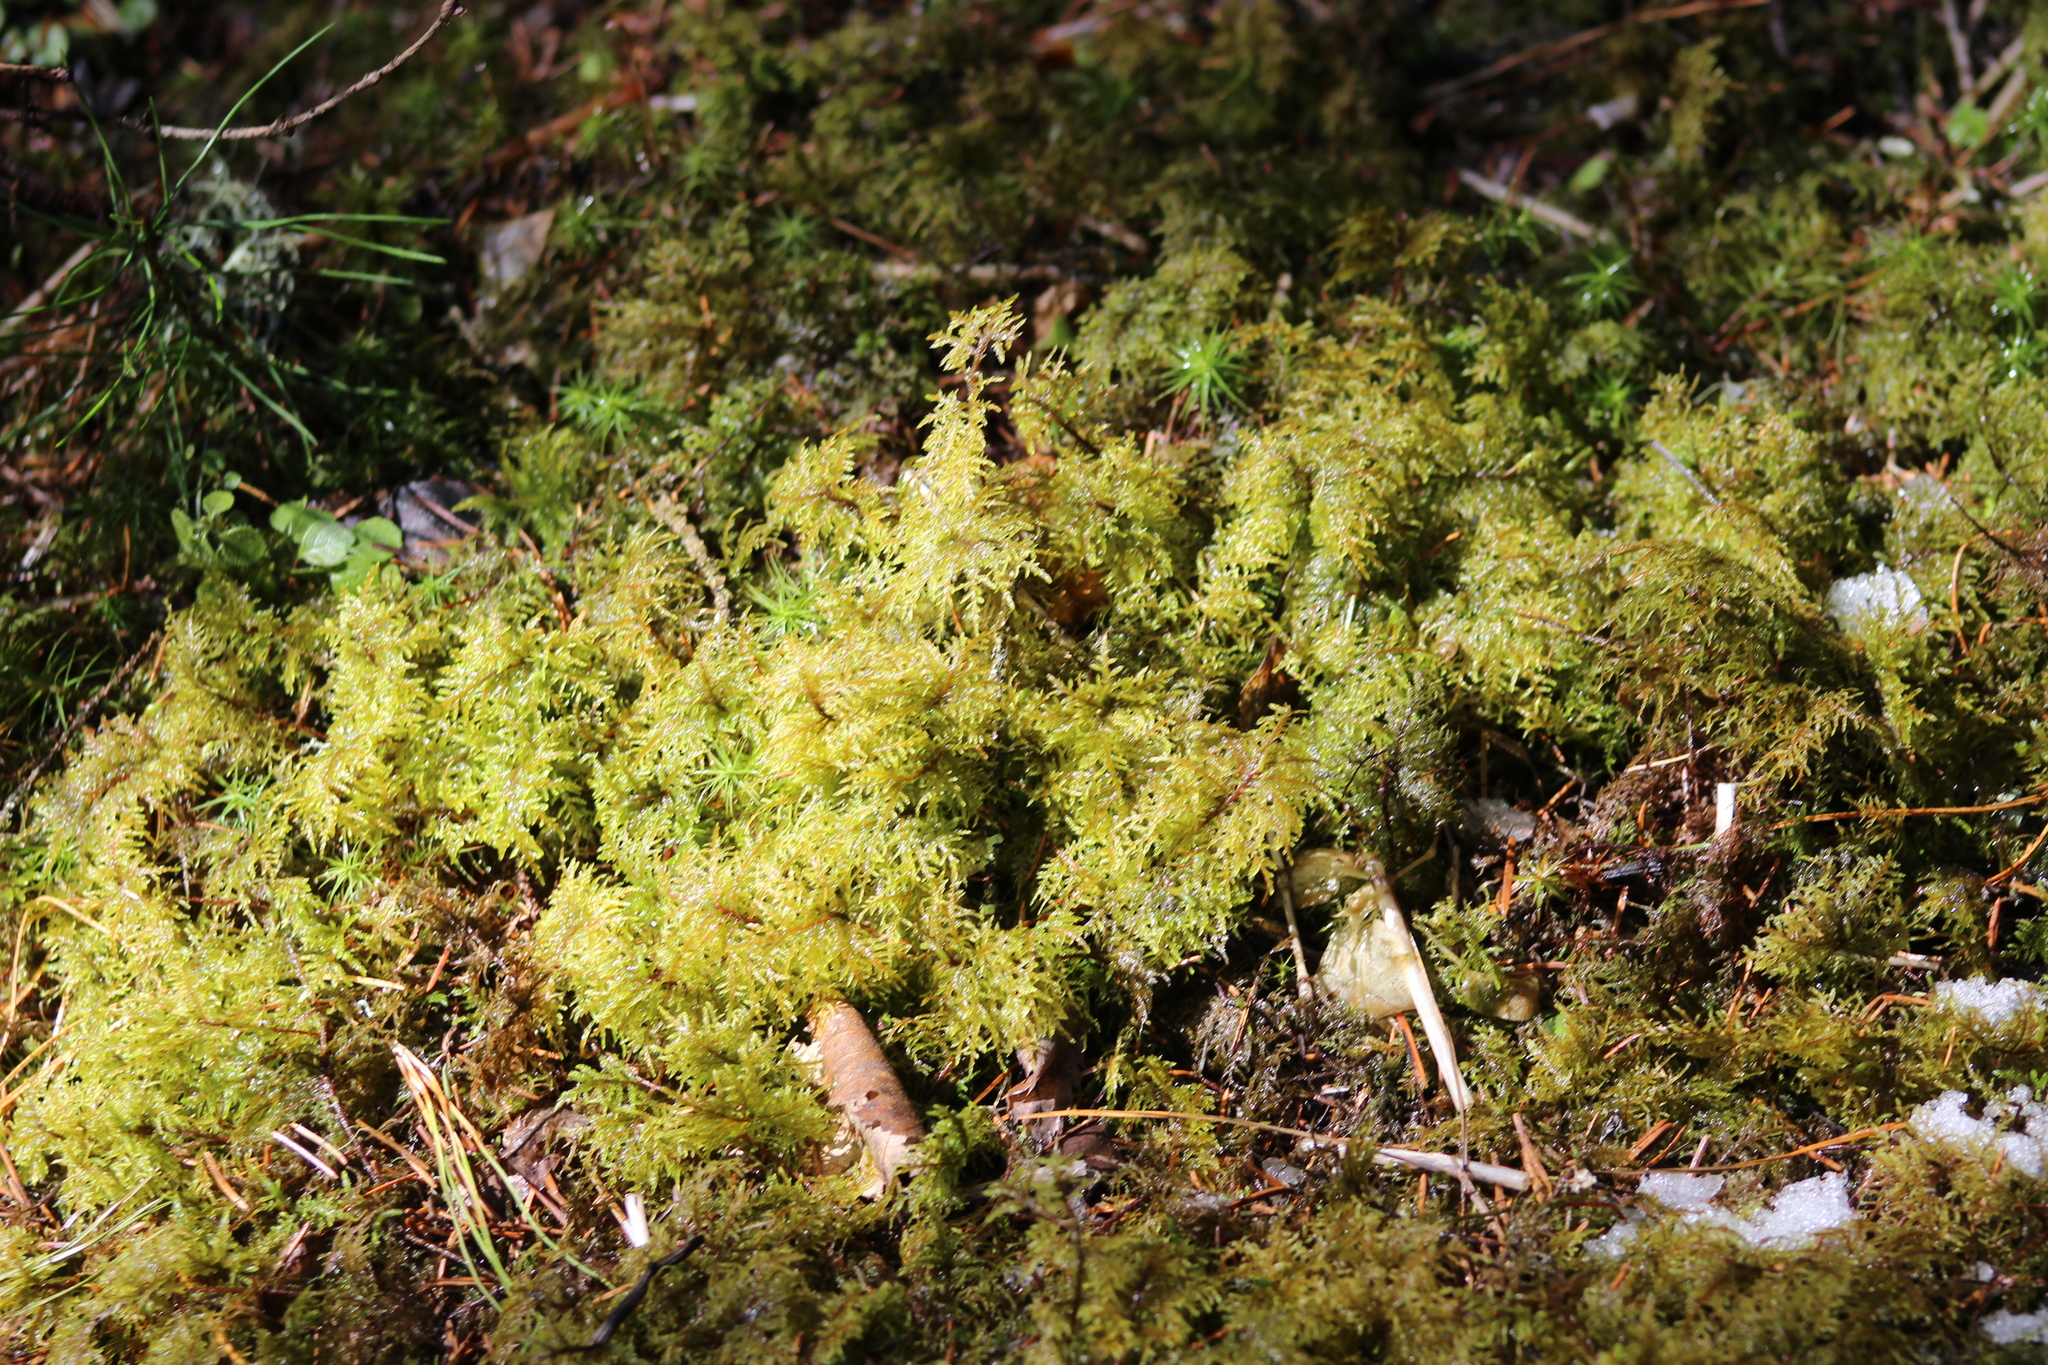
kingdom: Plantae
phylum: Bryophyta
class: Bryopsida
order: Hypnales
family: Hylocomiaceae
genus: Hylocomium
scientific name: Hylocomium splendens
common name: Stairstep moss
